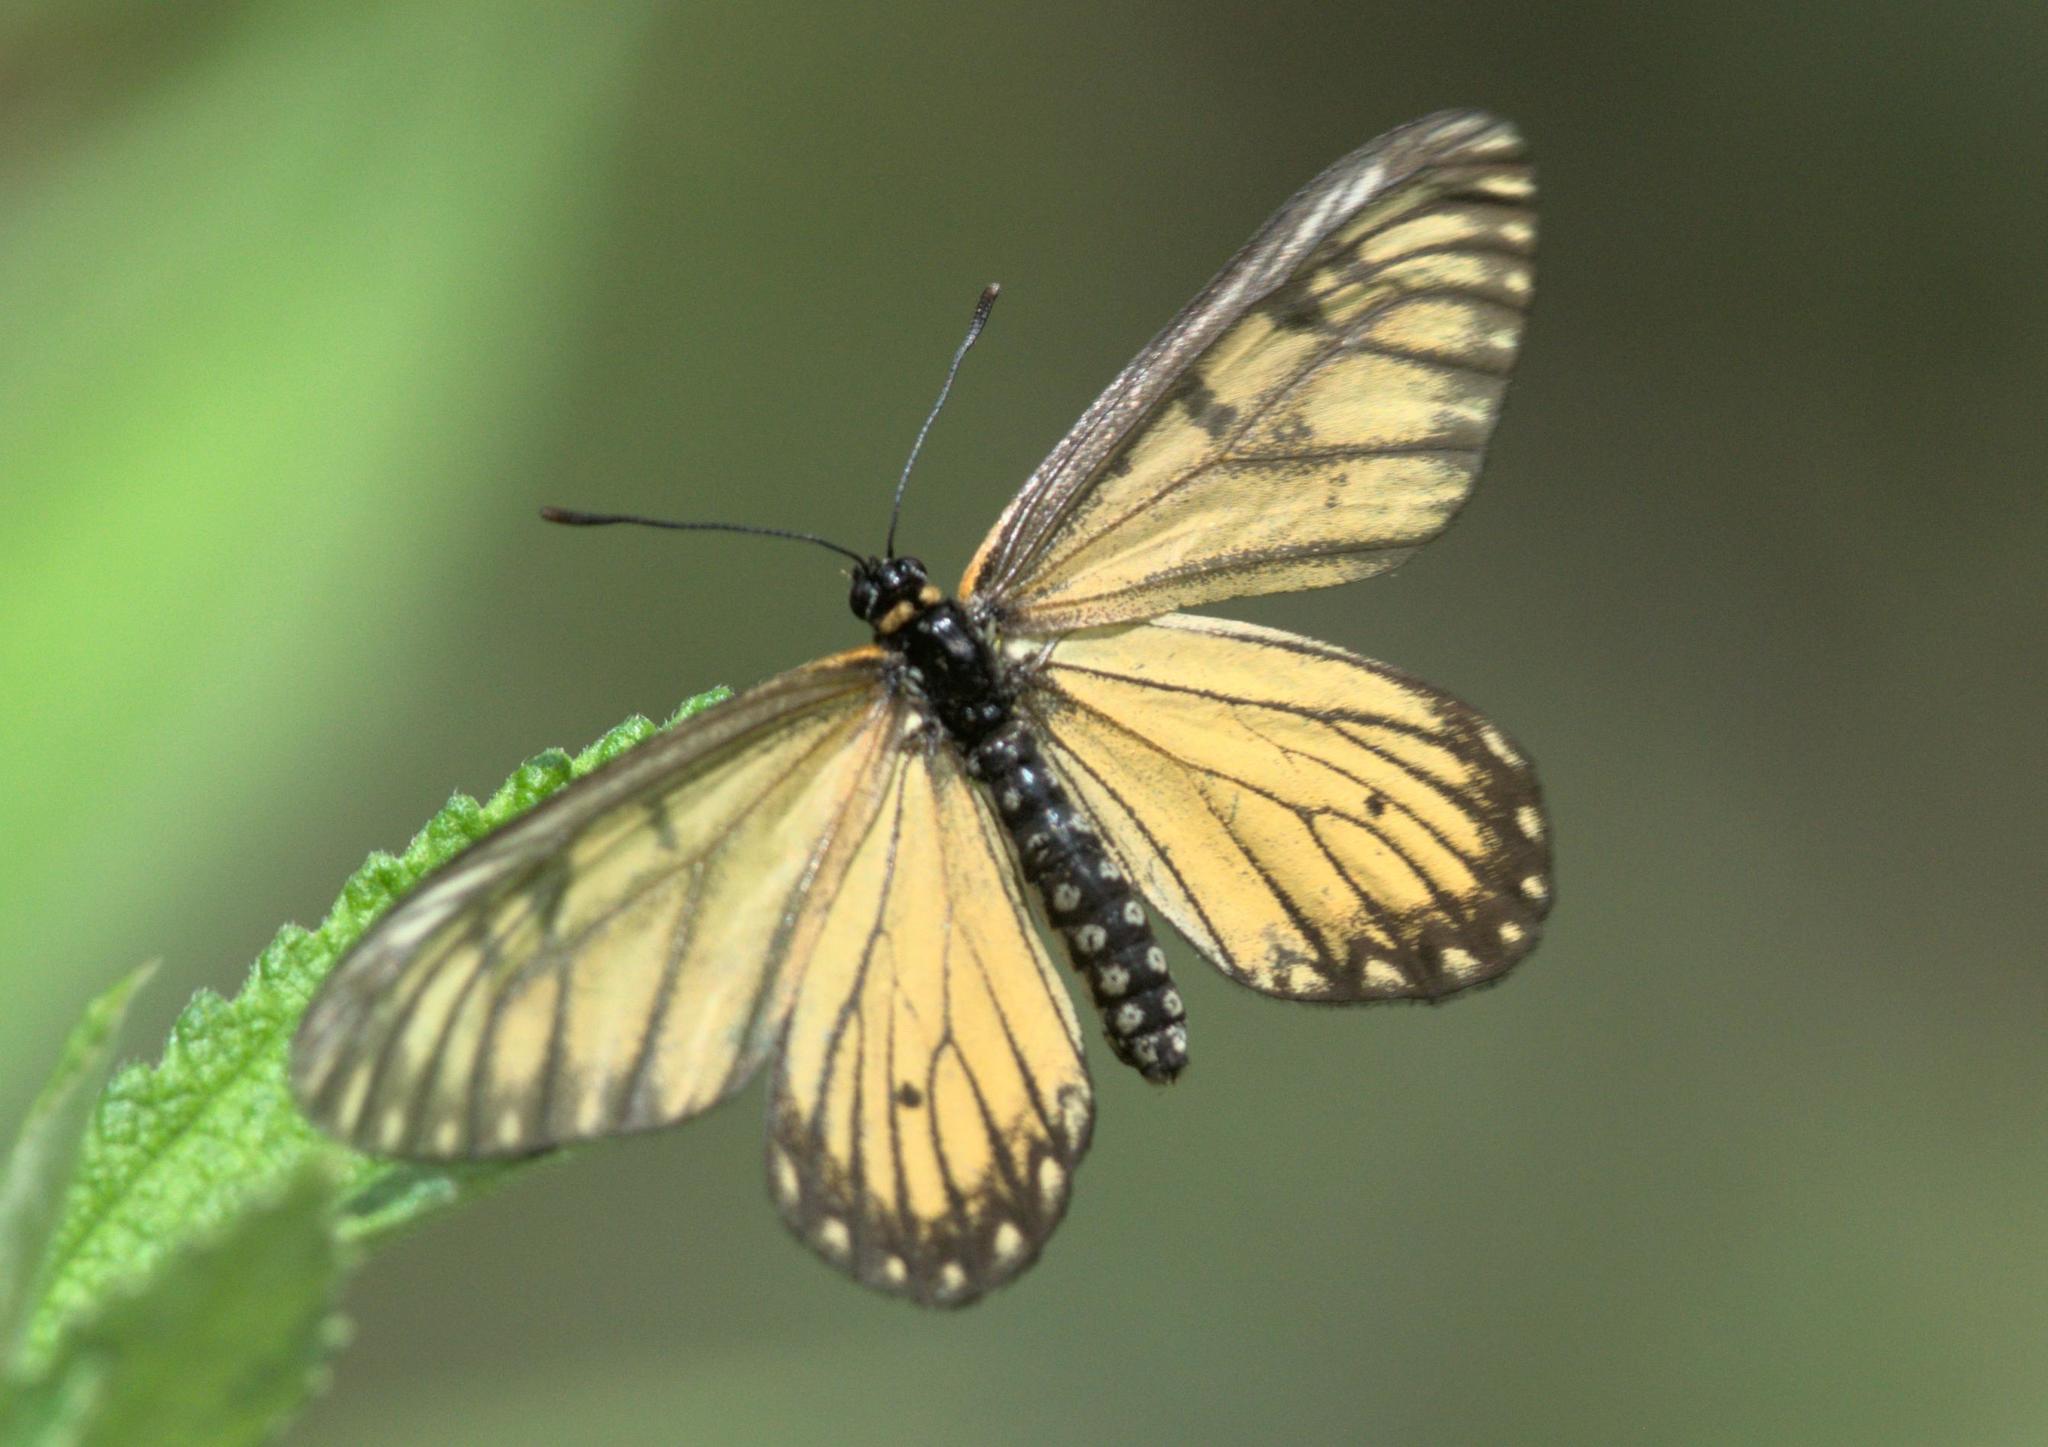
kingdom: Animalia
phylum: Arthropoda
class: Insecta
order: Lepidoptera
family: Nymphalidae
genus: Acraea
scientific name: Acraea Telchinia issoria
